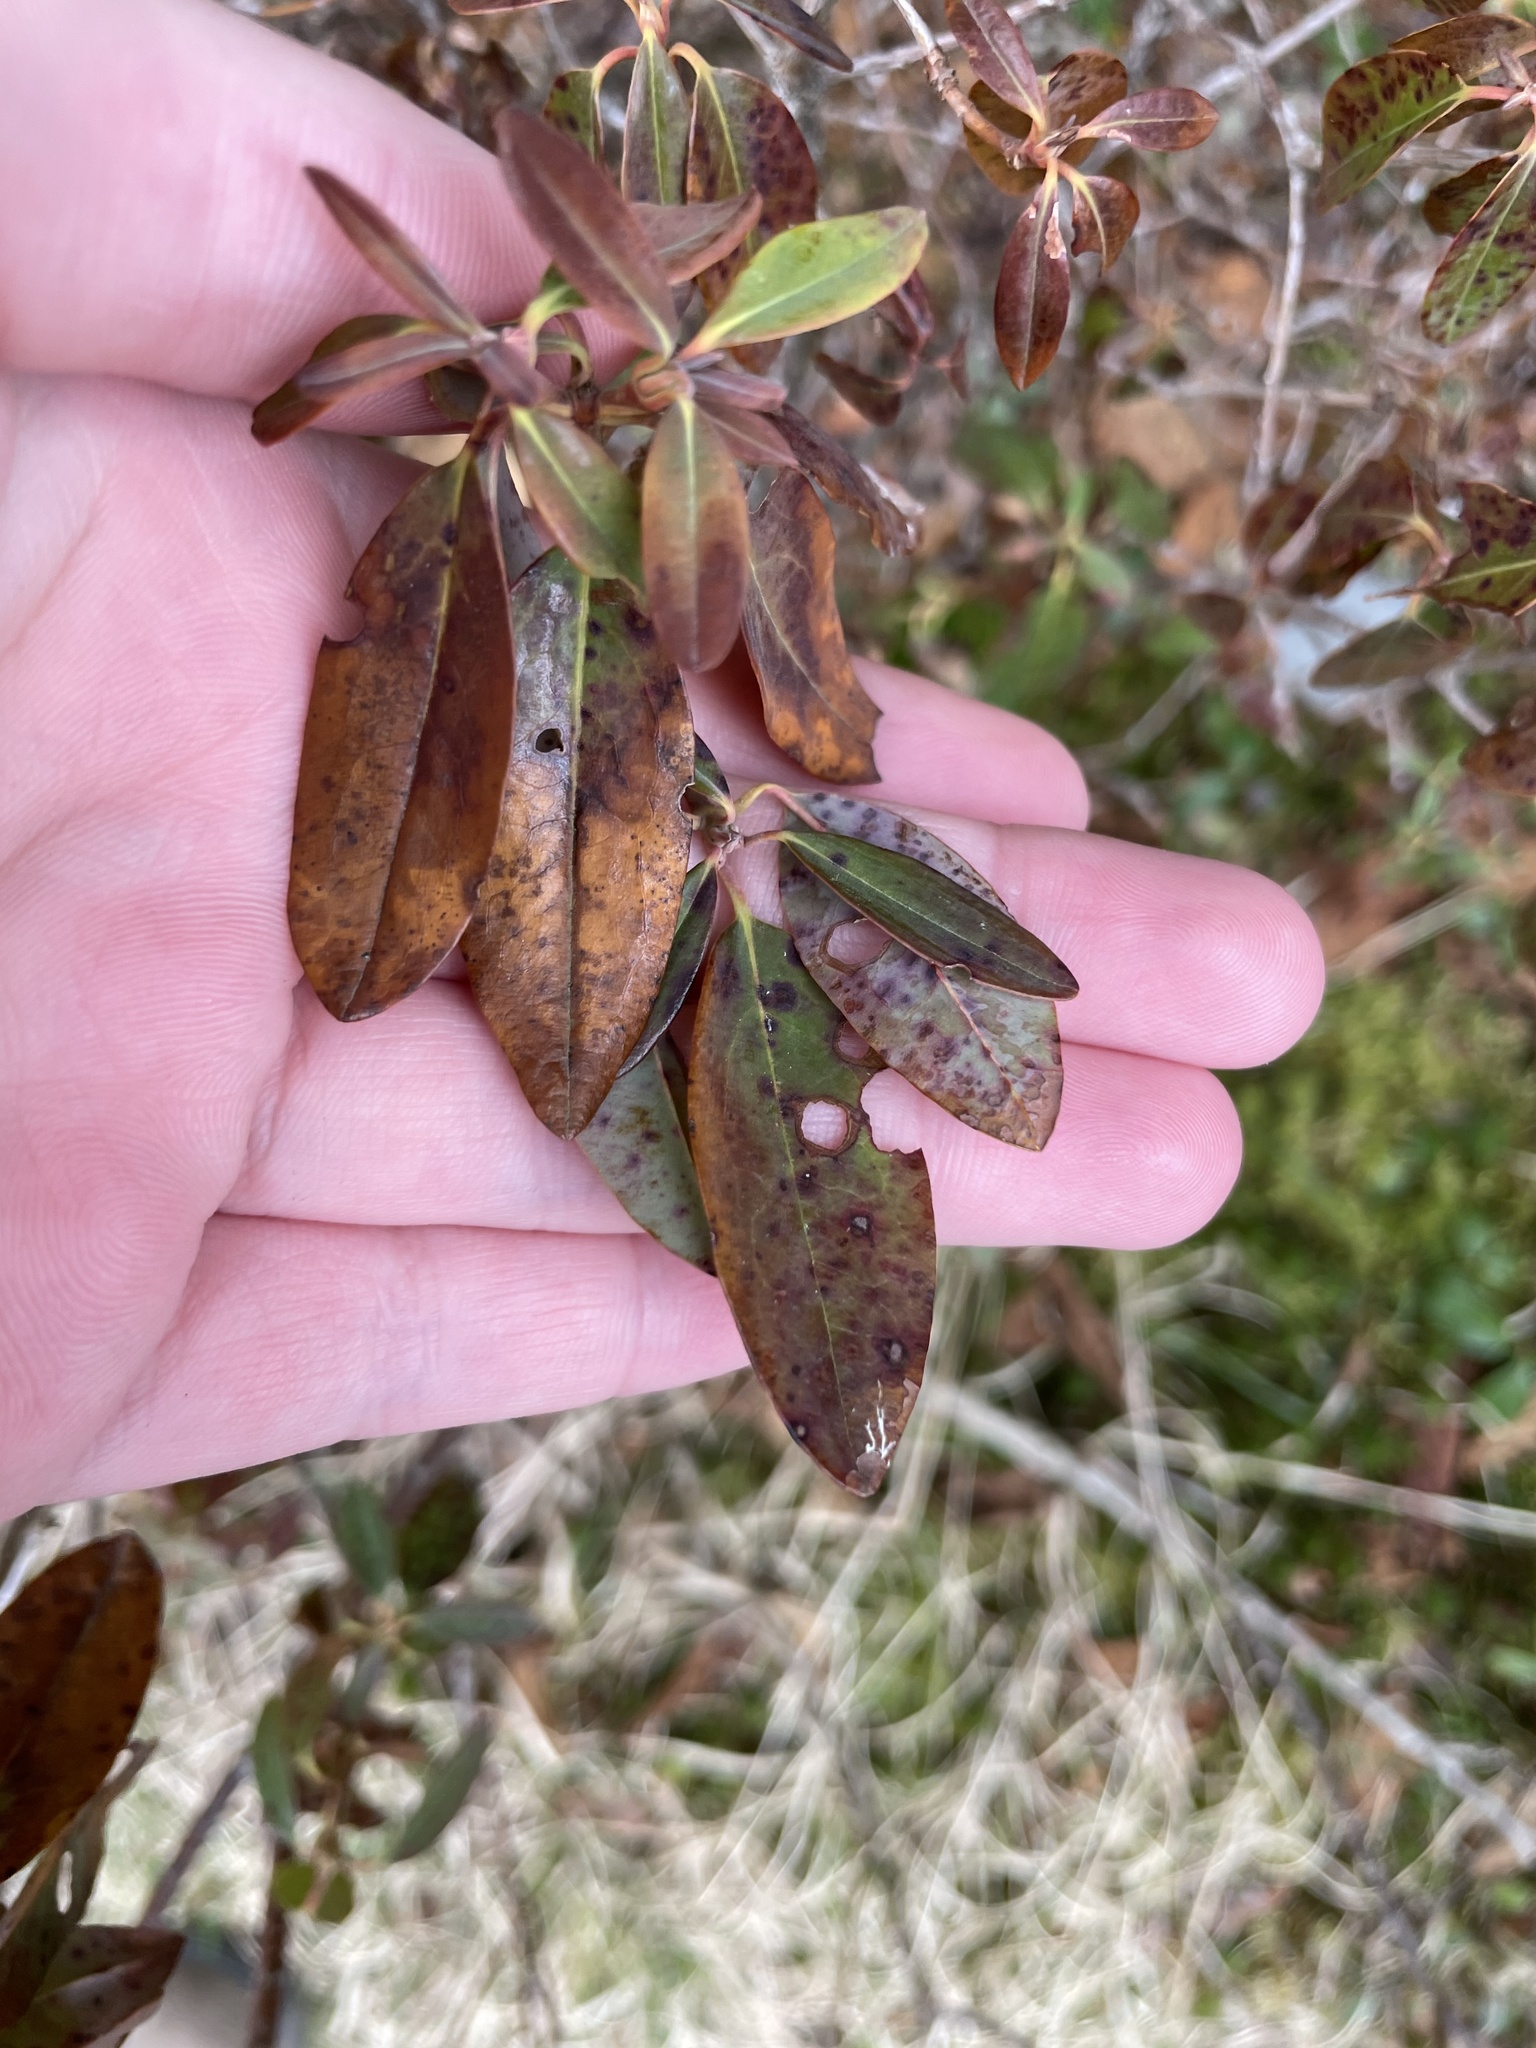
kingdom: Plantae
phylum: Tracheophyta
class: Magnoliopsida
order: Ericales
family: Ericaceae
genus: Kalmia
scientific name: Kalmia angustifolia
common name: Sheep-laurel
